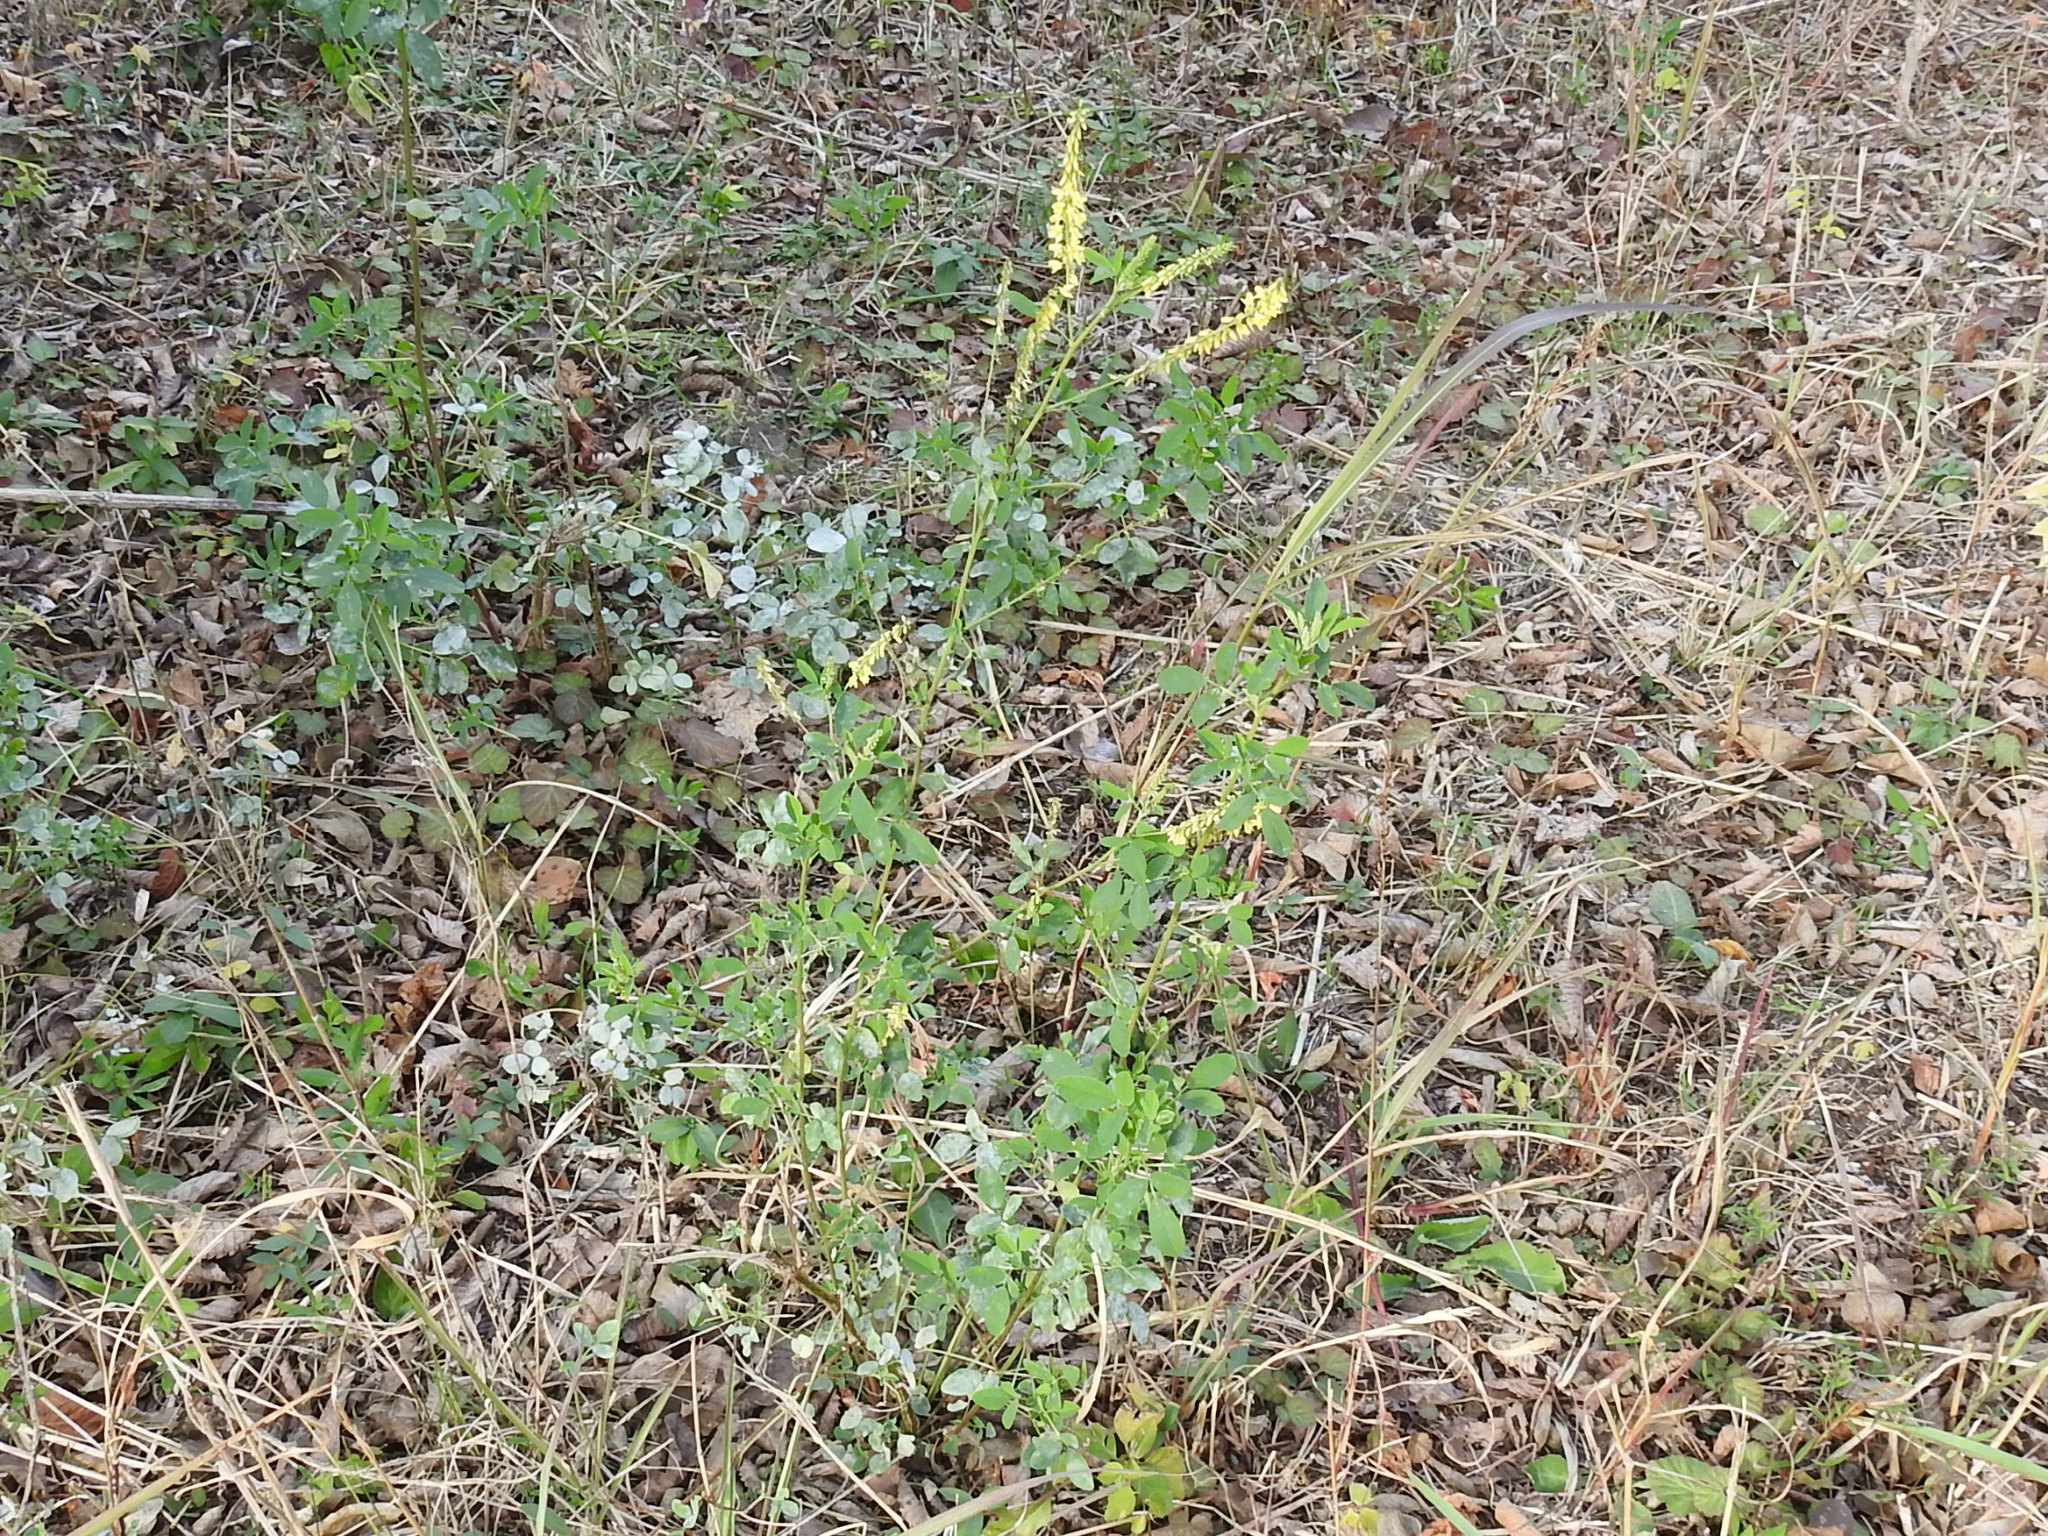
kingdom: Plantae
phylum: Tracheophyta
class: Magnoliopsida
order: Fabales
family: Fabaceae
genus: Melilotus
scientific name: Melilotus officinalis
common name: Sweetclover
